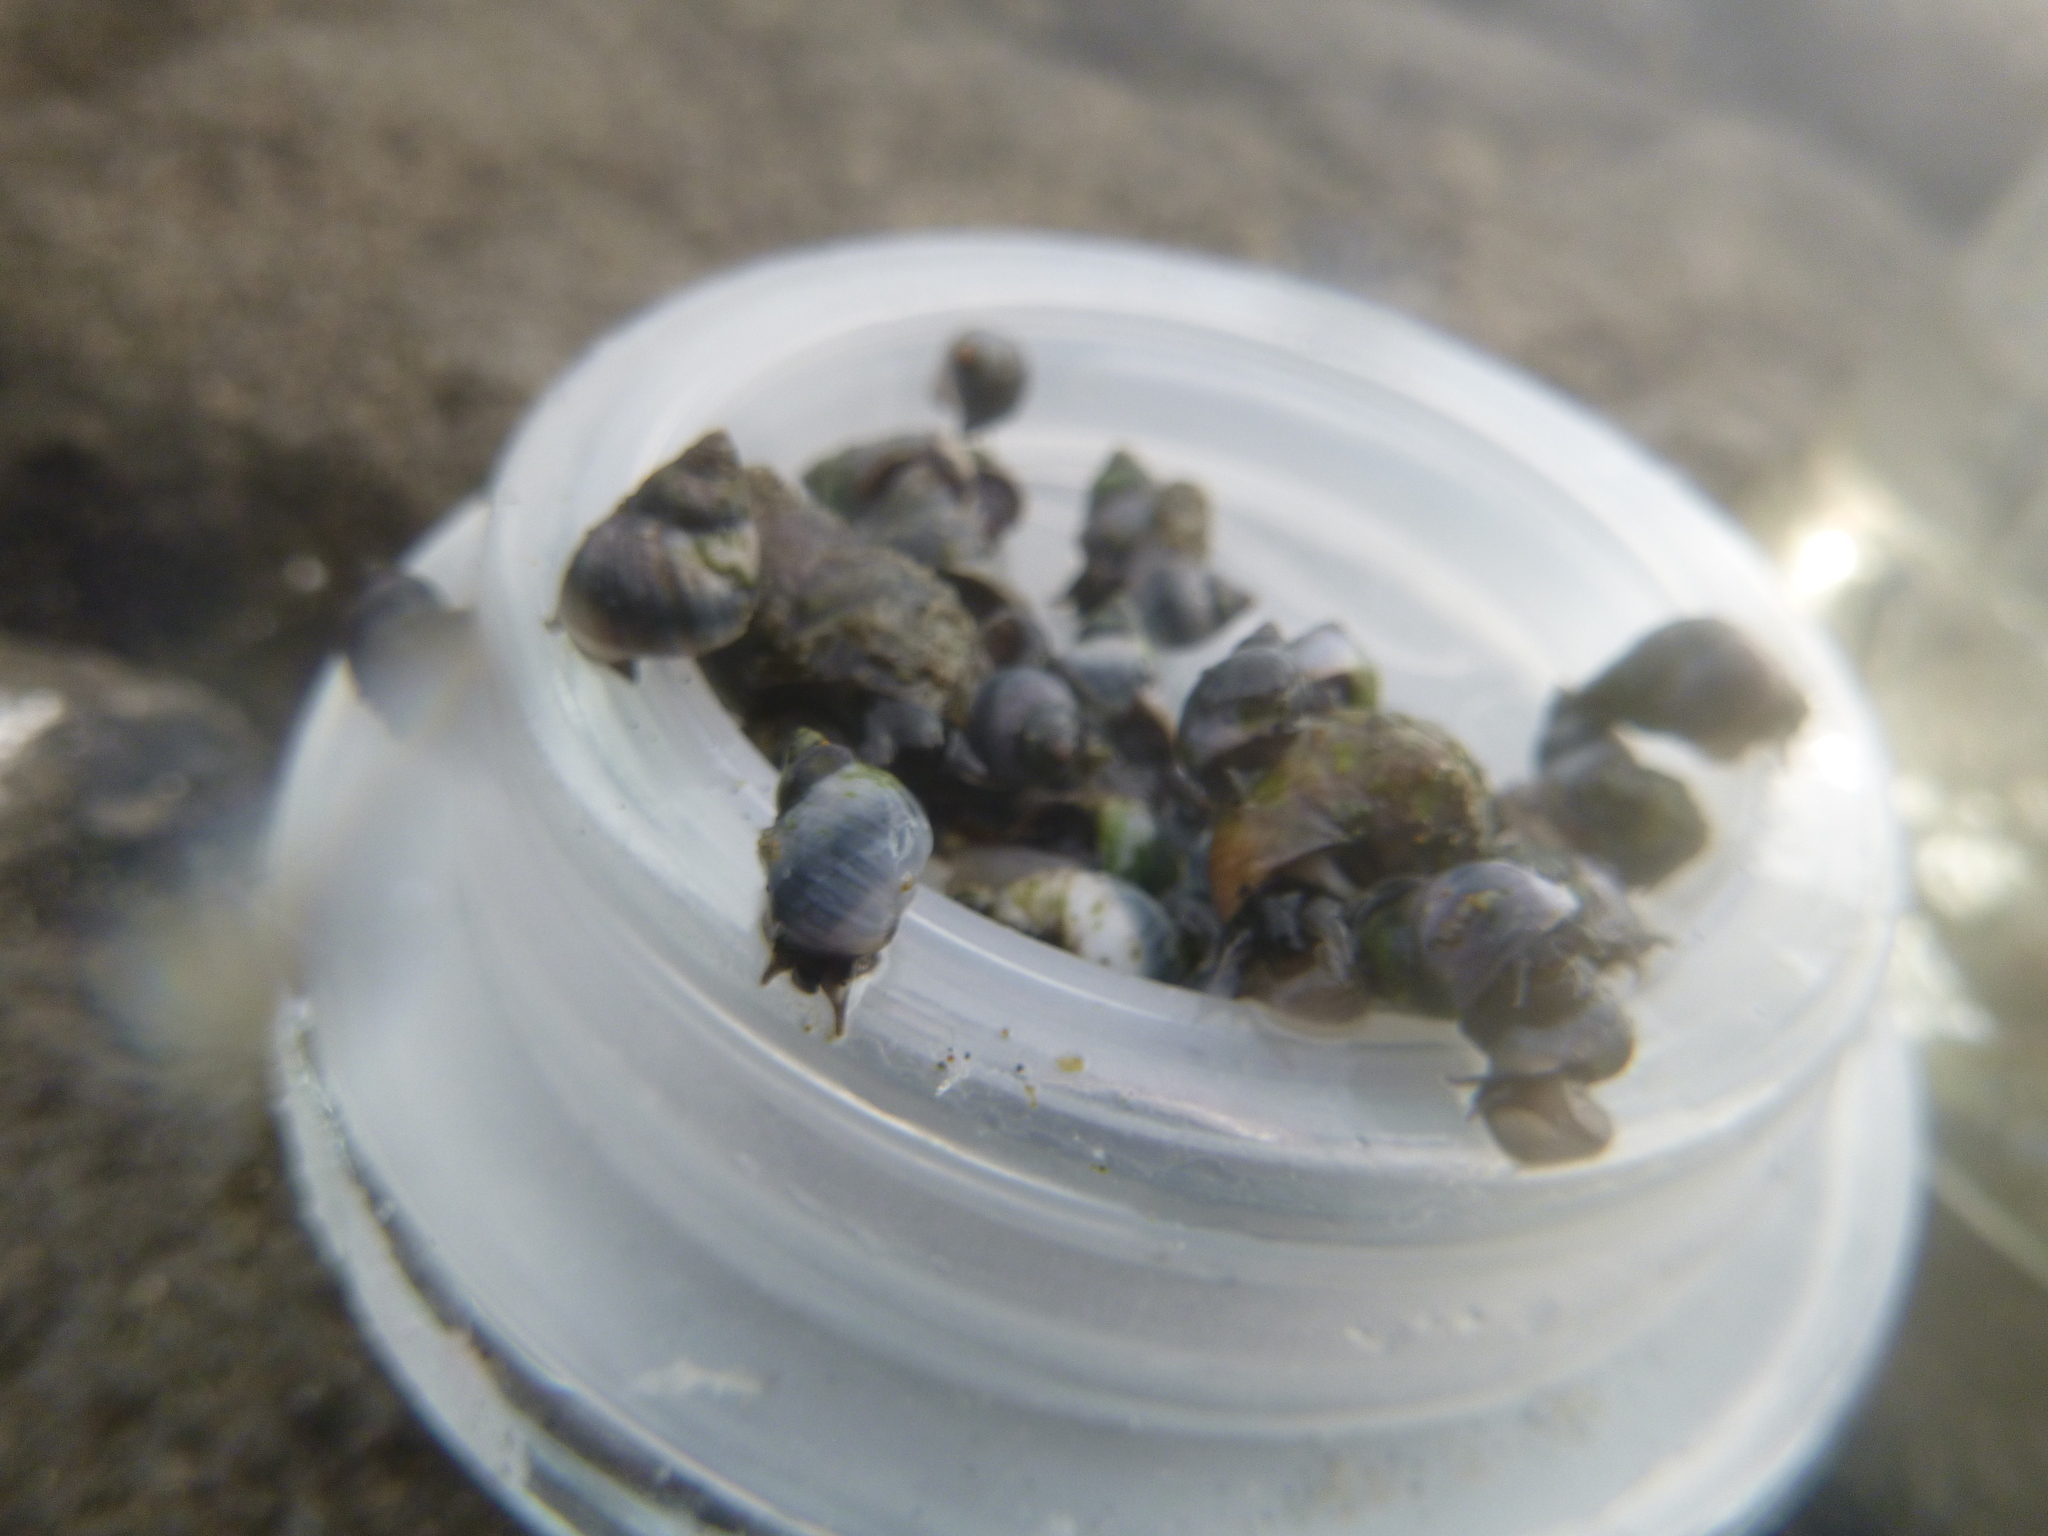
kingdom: Animalia
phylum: Mollusca
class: Gastropoda
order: Littorinimorpha
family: Littorinidae
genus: Austrolittorina
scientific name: Austrolittorina antipodum
